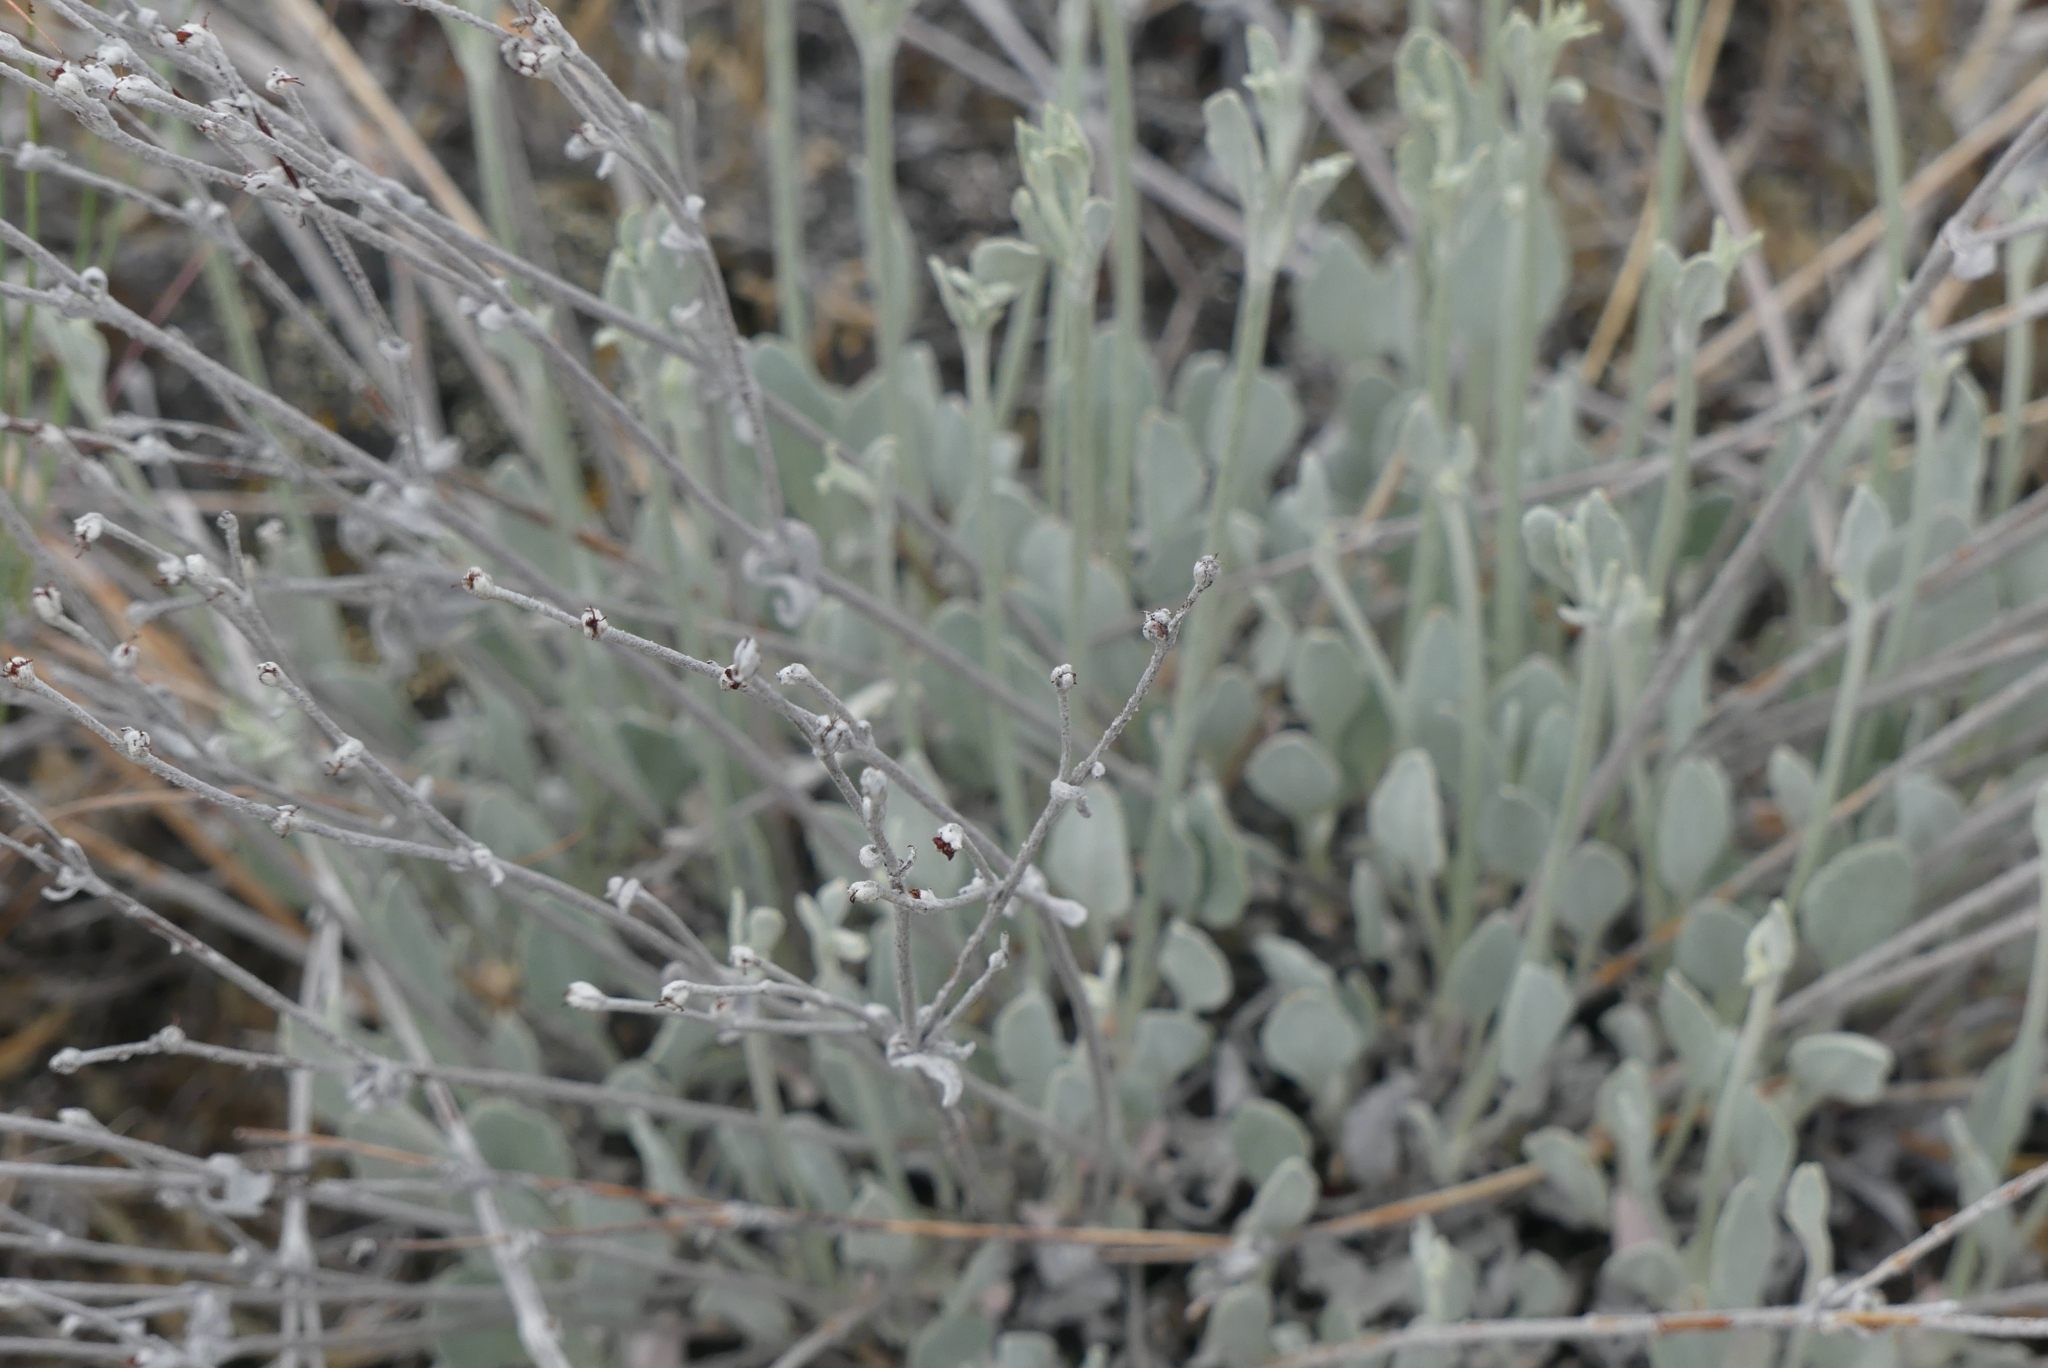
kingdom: Plantae
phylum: Tracheophyta
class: Magnoliopsida
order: Caryophyllales
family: Polygonaceae
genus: Eriogonum
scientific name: Eriogonum niveum
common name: Snow wild buckwheat
